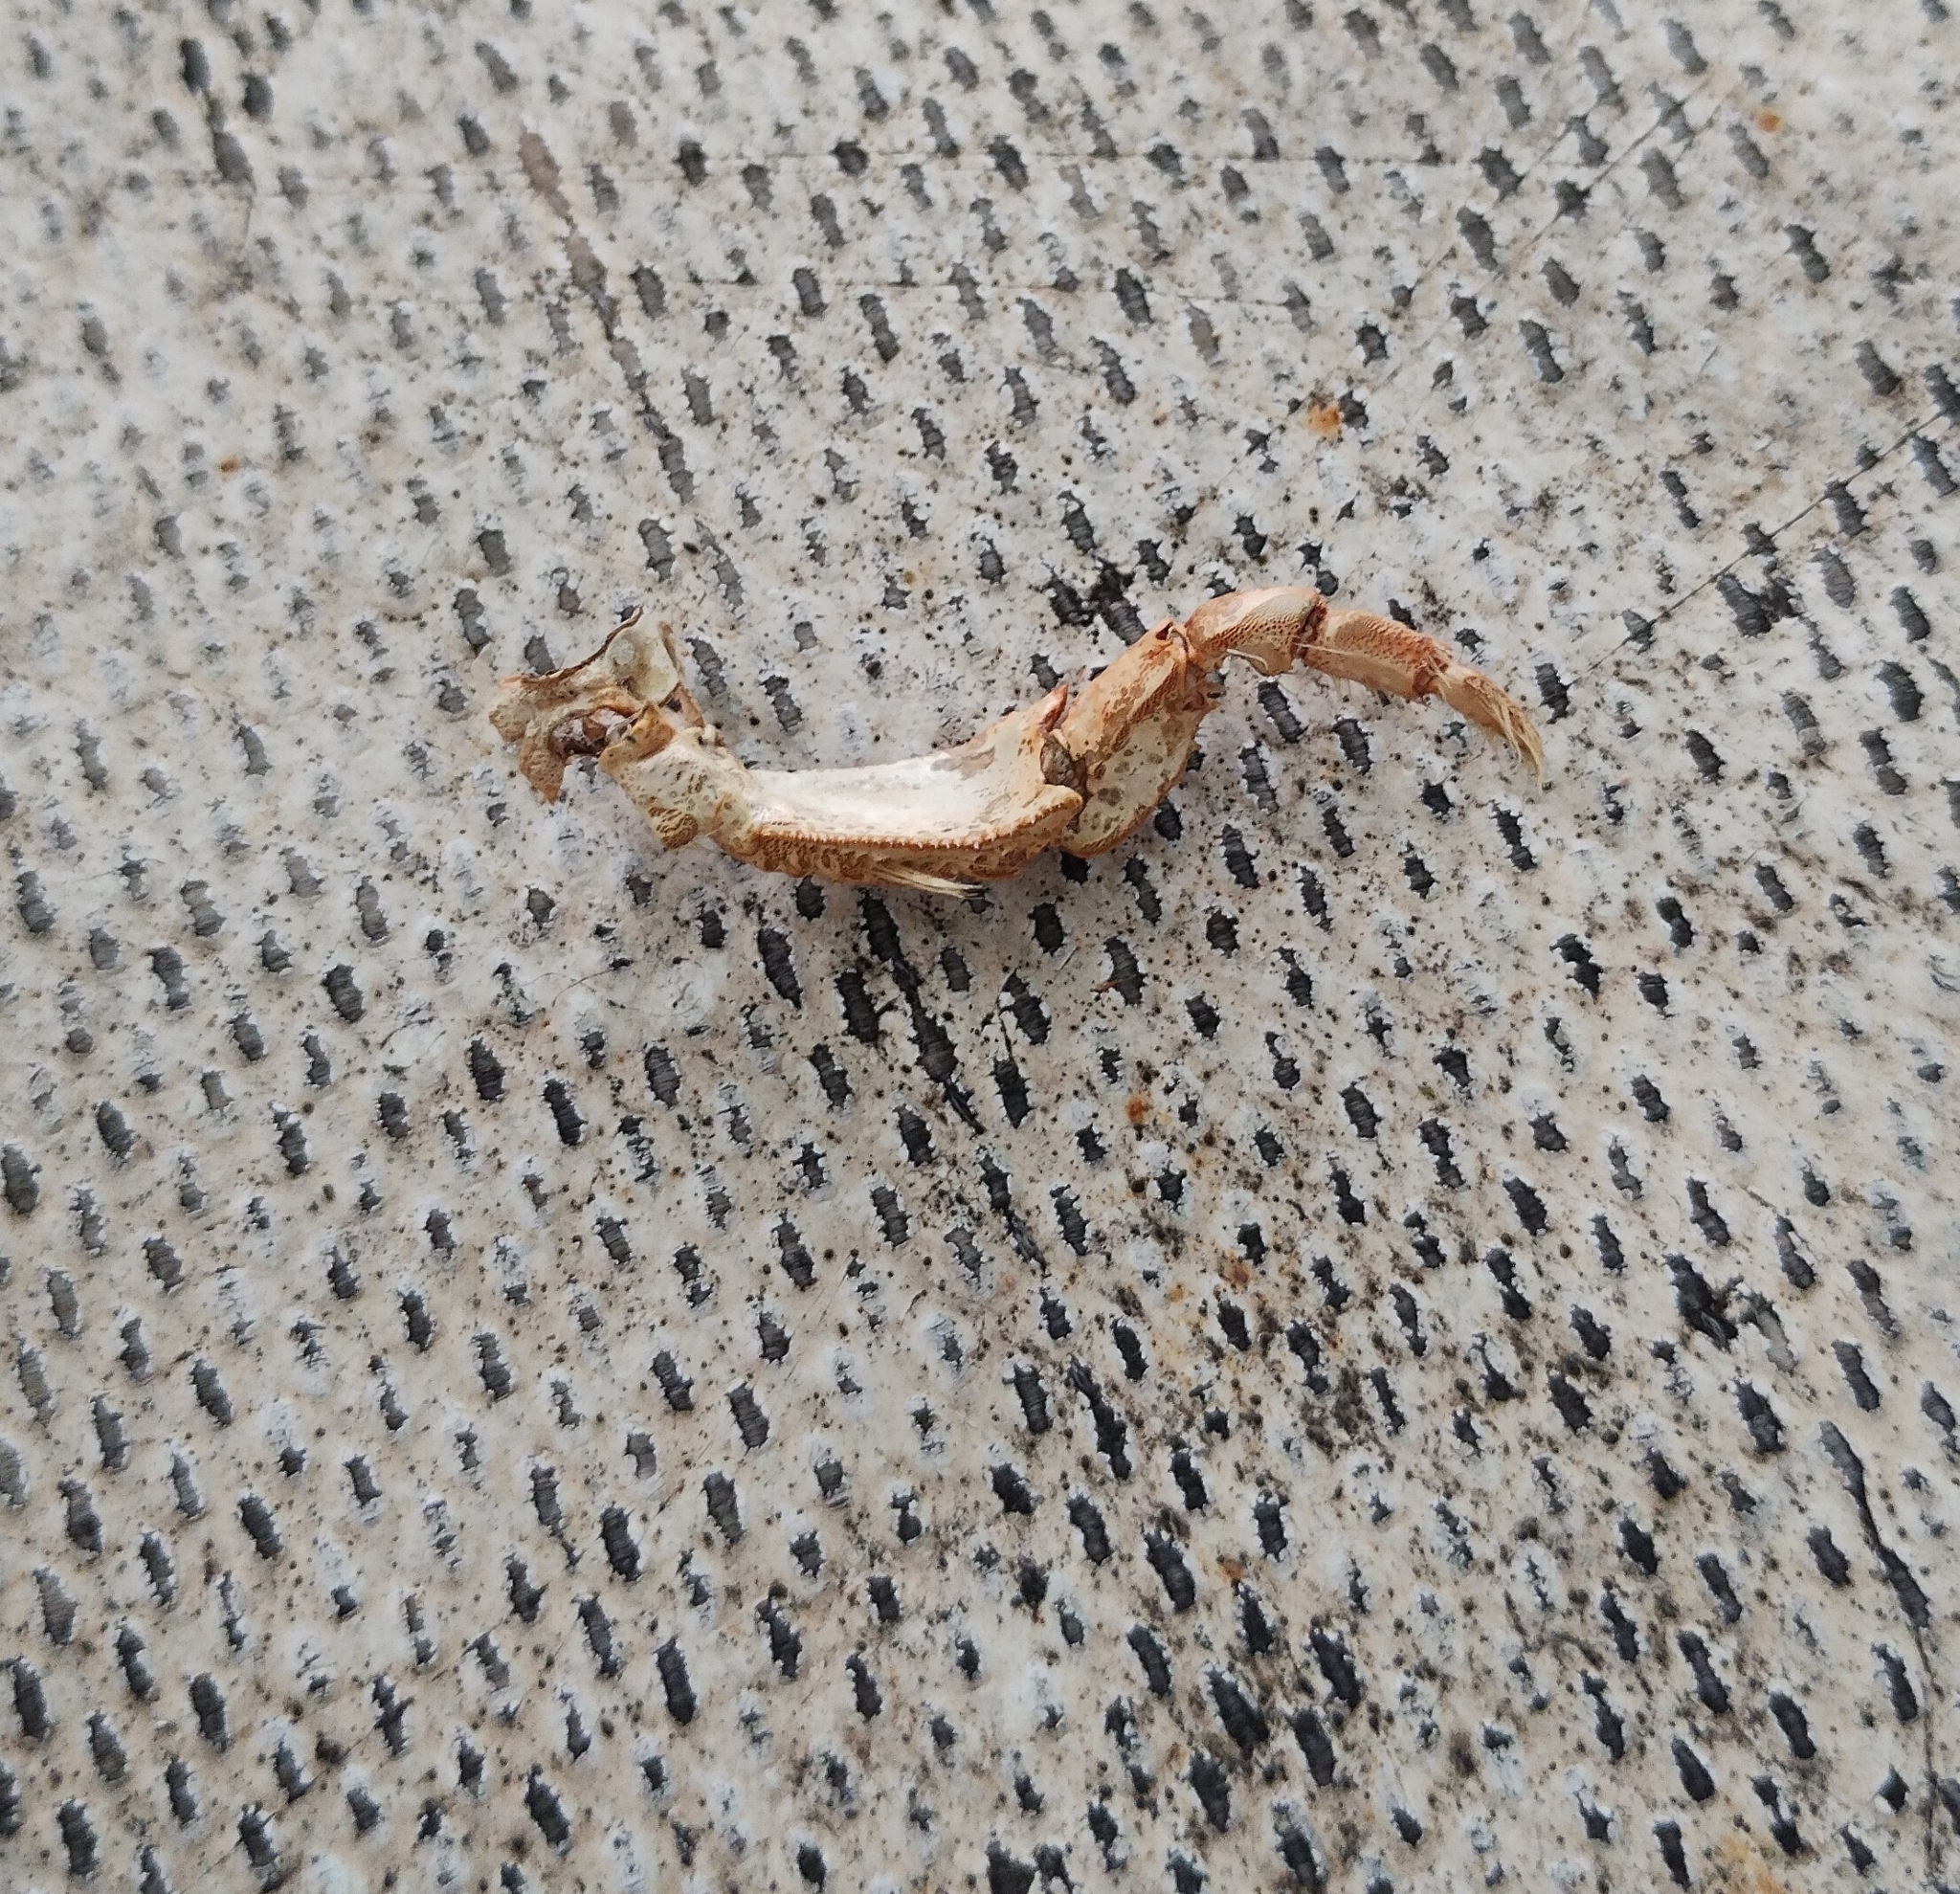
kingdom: Animalia
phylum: Arthropoda
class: Malacostraca
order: Decapoda
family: Astacidae
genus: Austropotamobius
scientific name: Austropotamobius torrentium
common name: Stone crayfish
